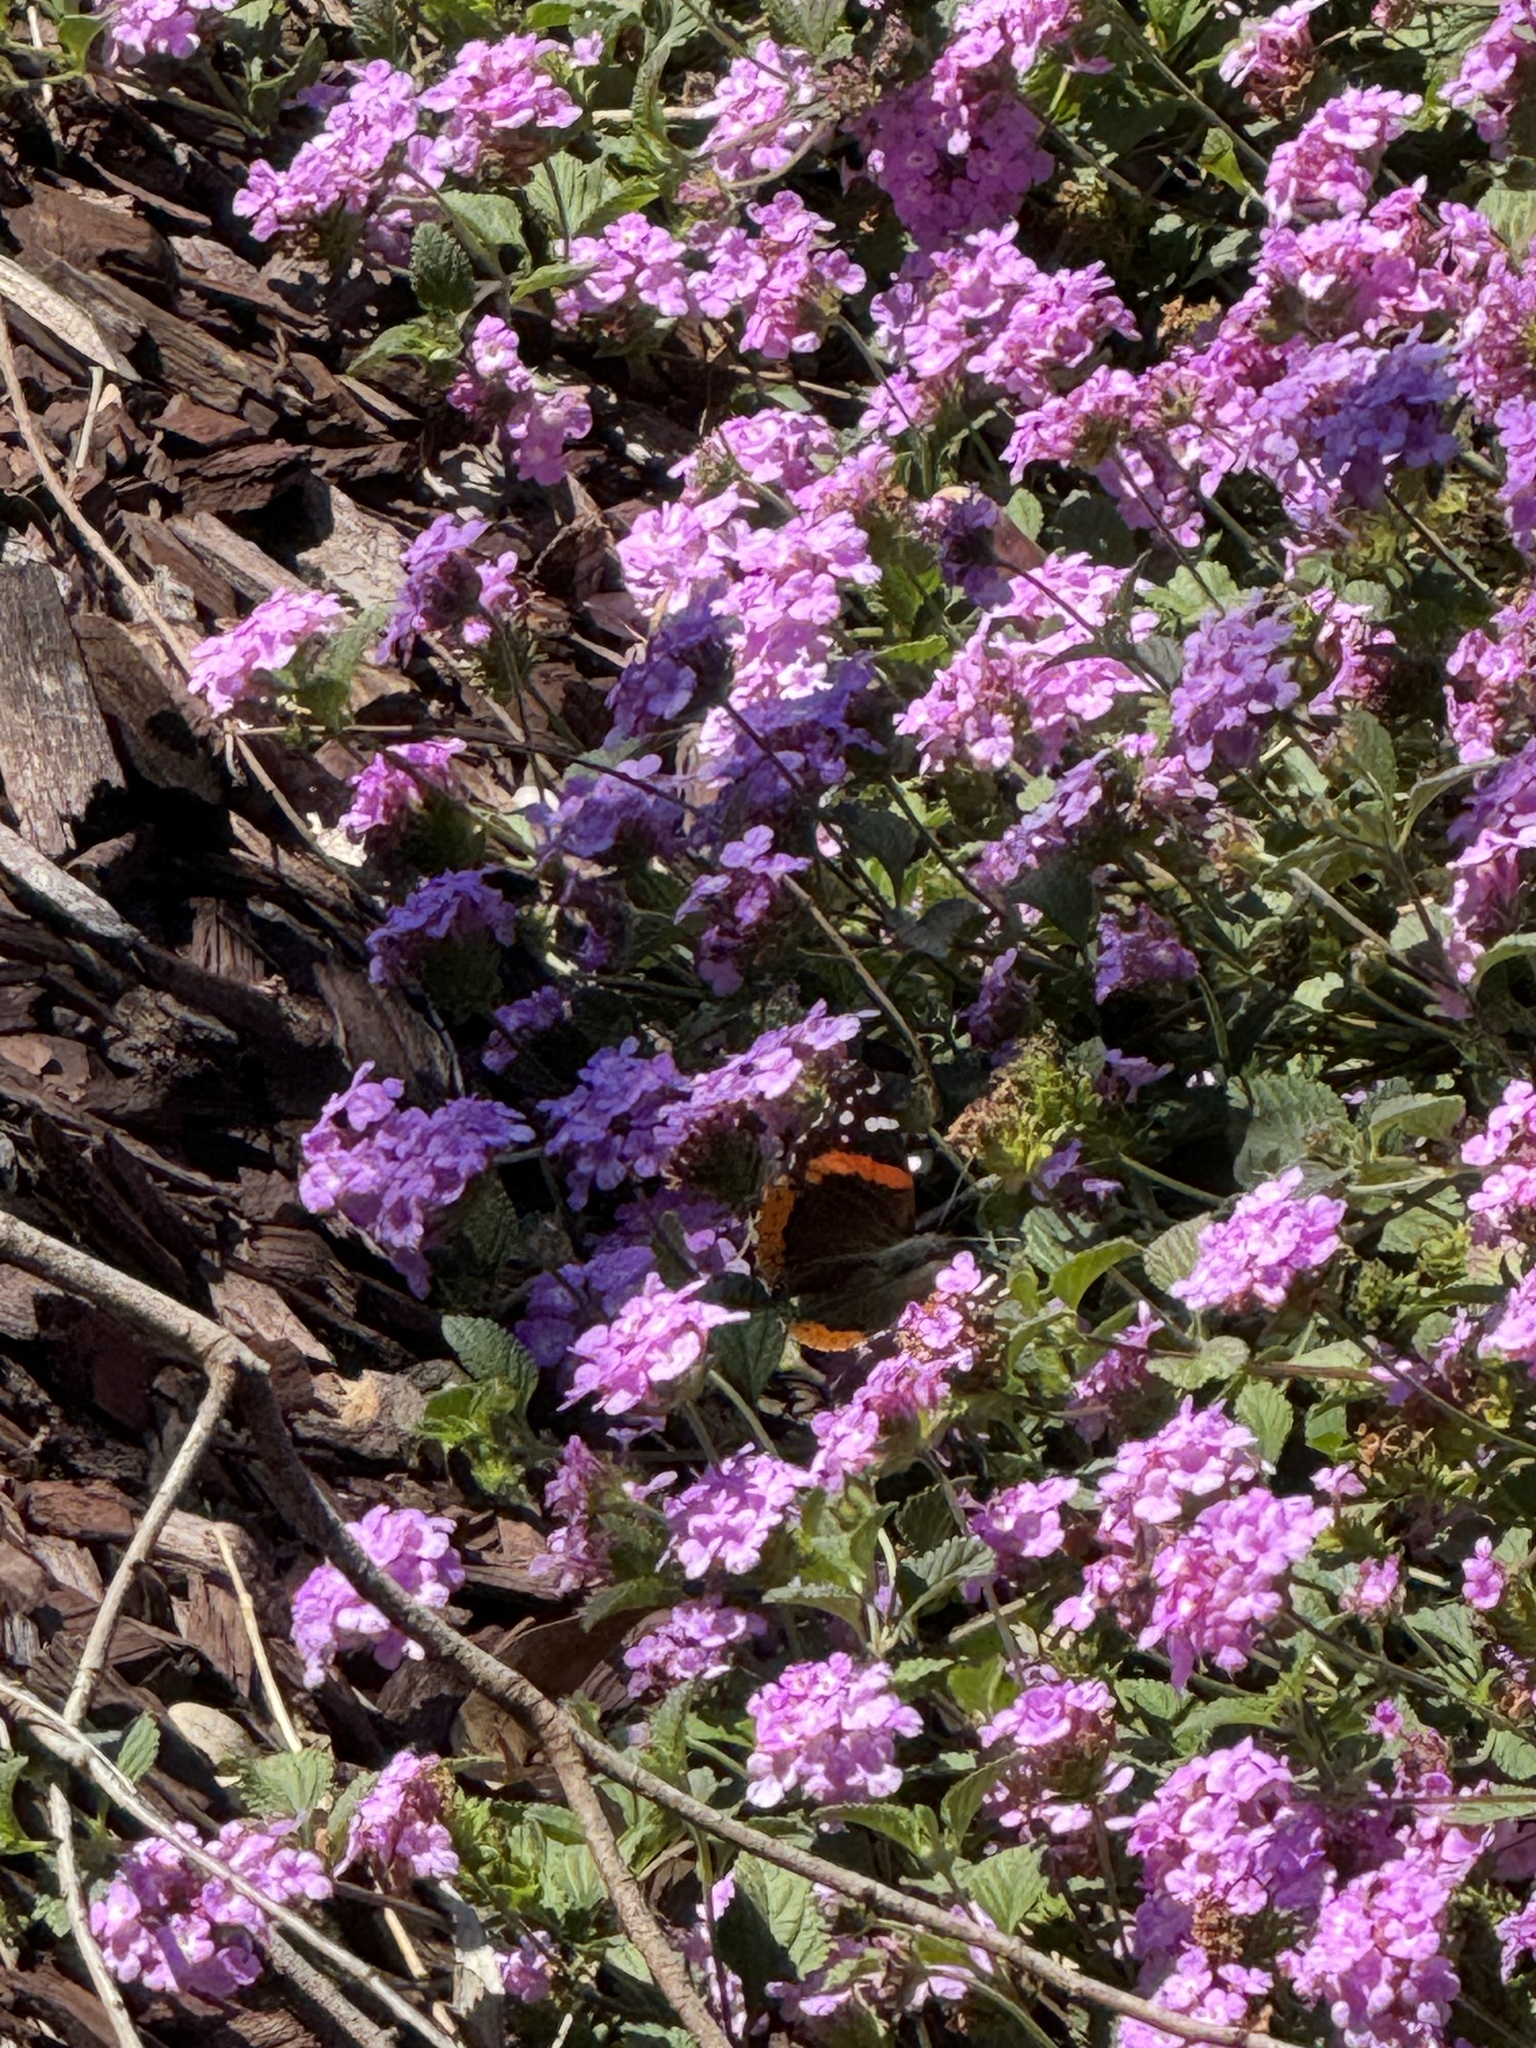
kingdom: Animalia
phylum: Arthropoda
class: Insecta
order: Lepidoptera
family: Nymphalidae
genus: Vanessa
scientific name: Vanessa atalanta
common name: Red admiral
